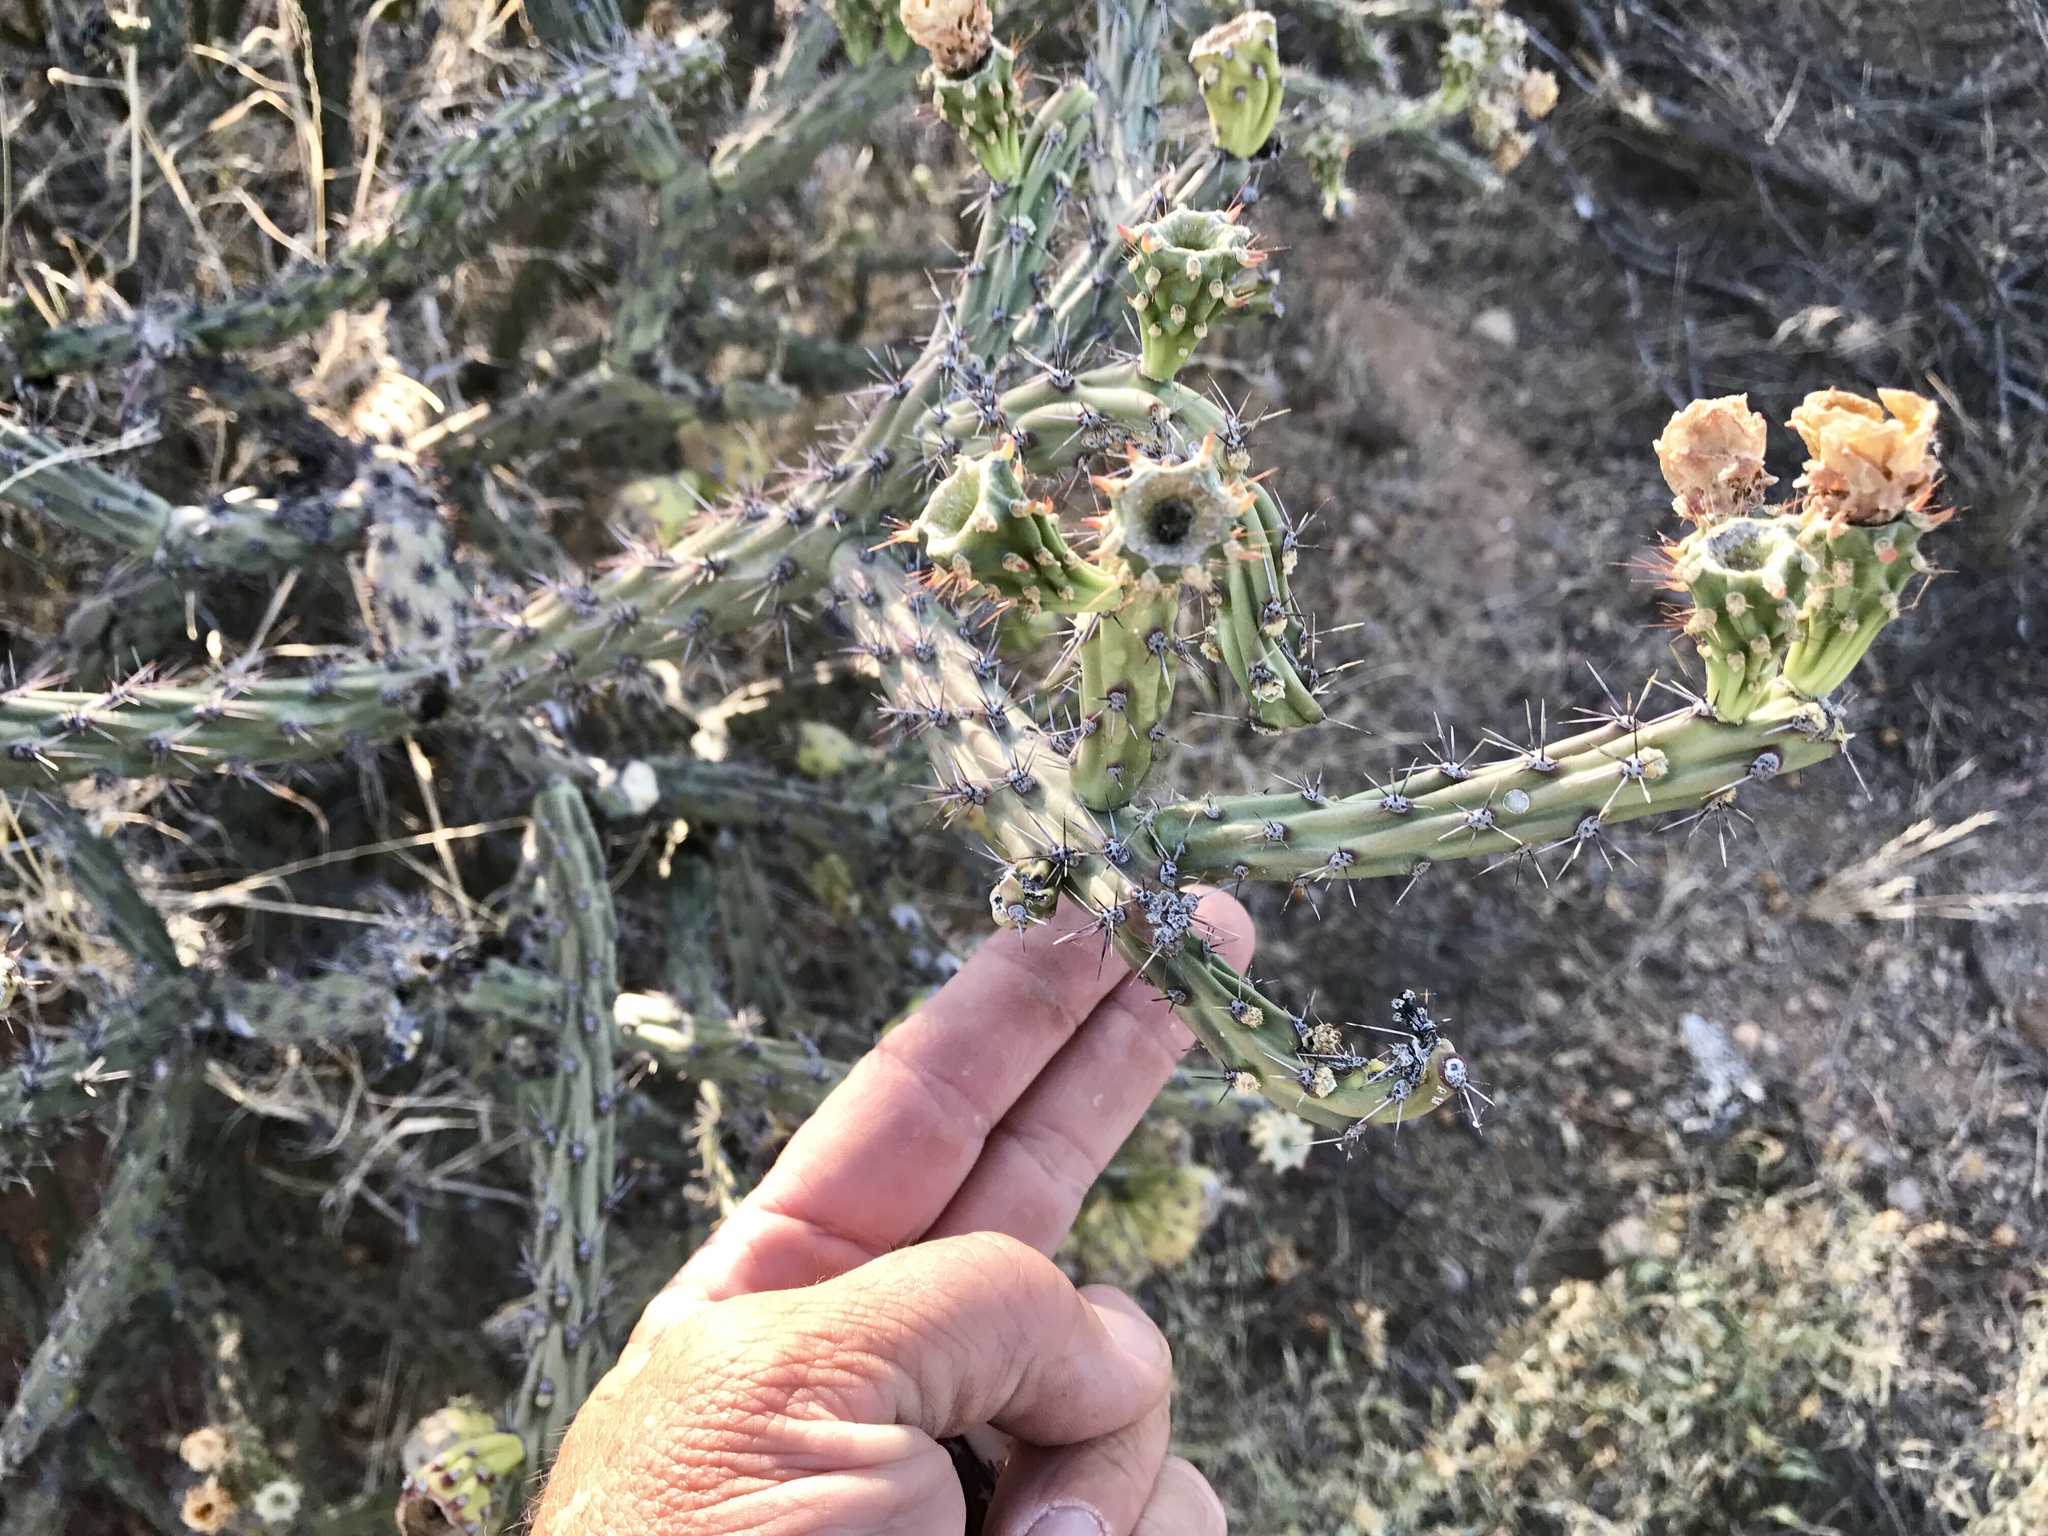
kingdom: Plantae
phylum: Tracheophyta
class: Magnoliopsida
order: Caryophyllales
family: Cactaceae
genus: Cylindropuntia
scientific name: Cylindropuntia thurberi
